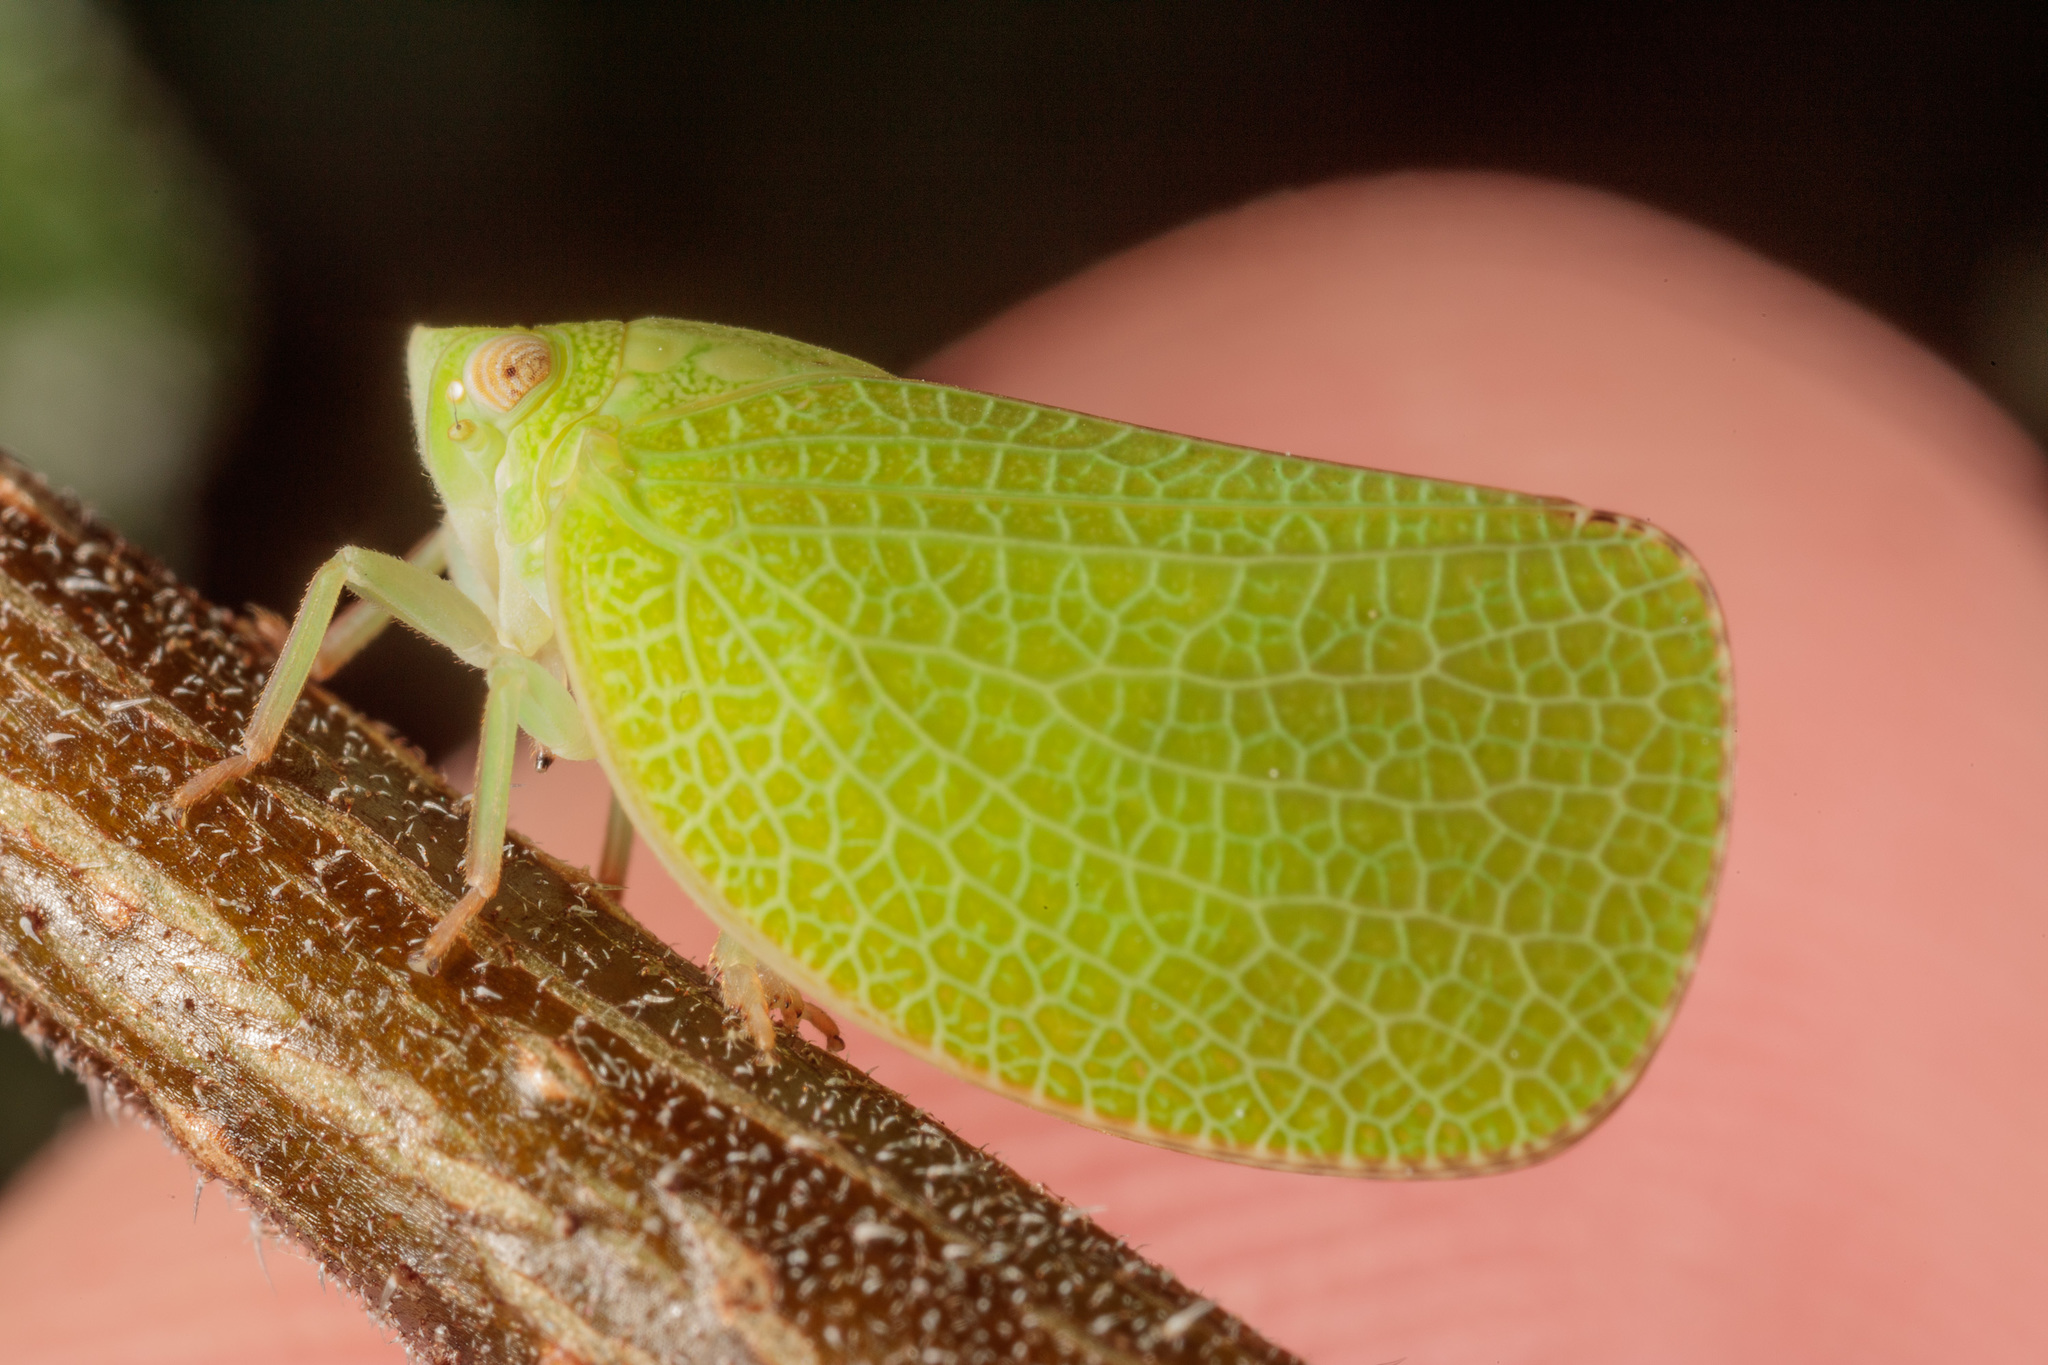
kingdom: Animalia
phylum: Arthropoda
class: Insecta
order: Hemiptera
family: Acanaloniidae
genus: Acanalonia
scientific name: Acanalonia conica
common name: Green cone-headed planthopper
